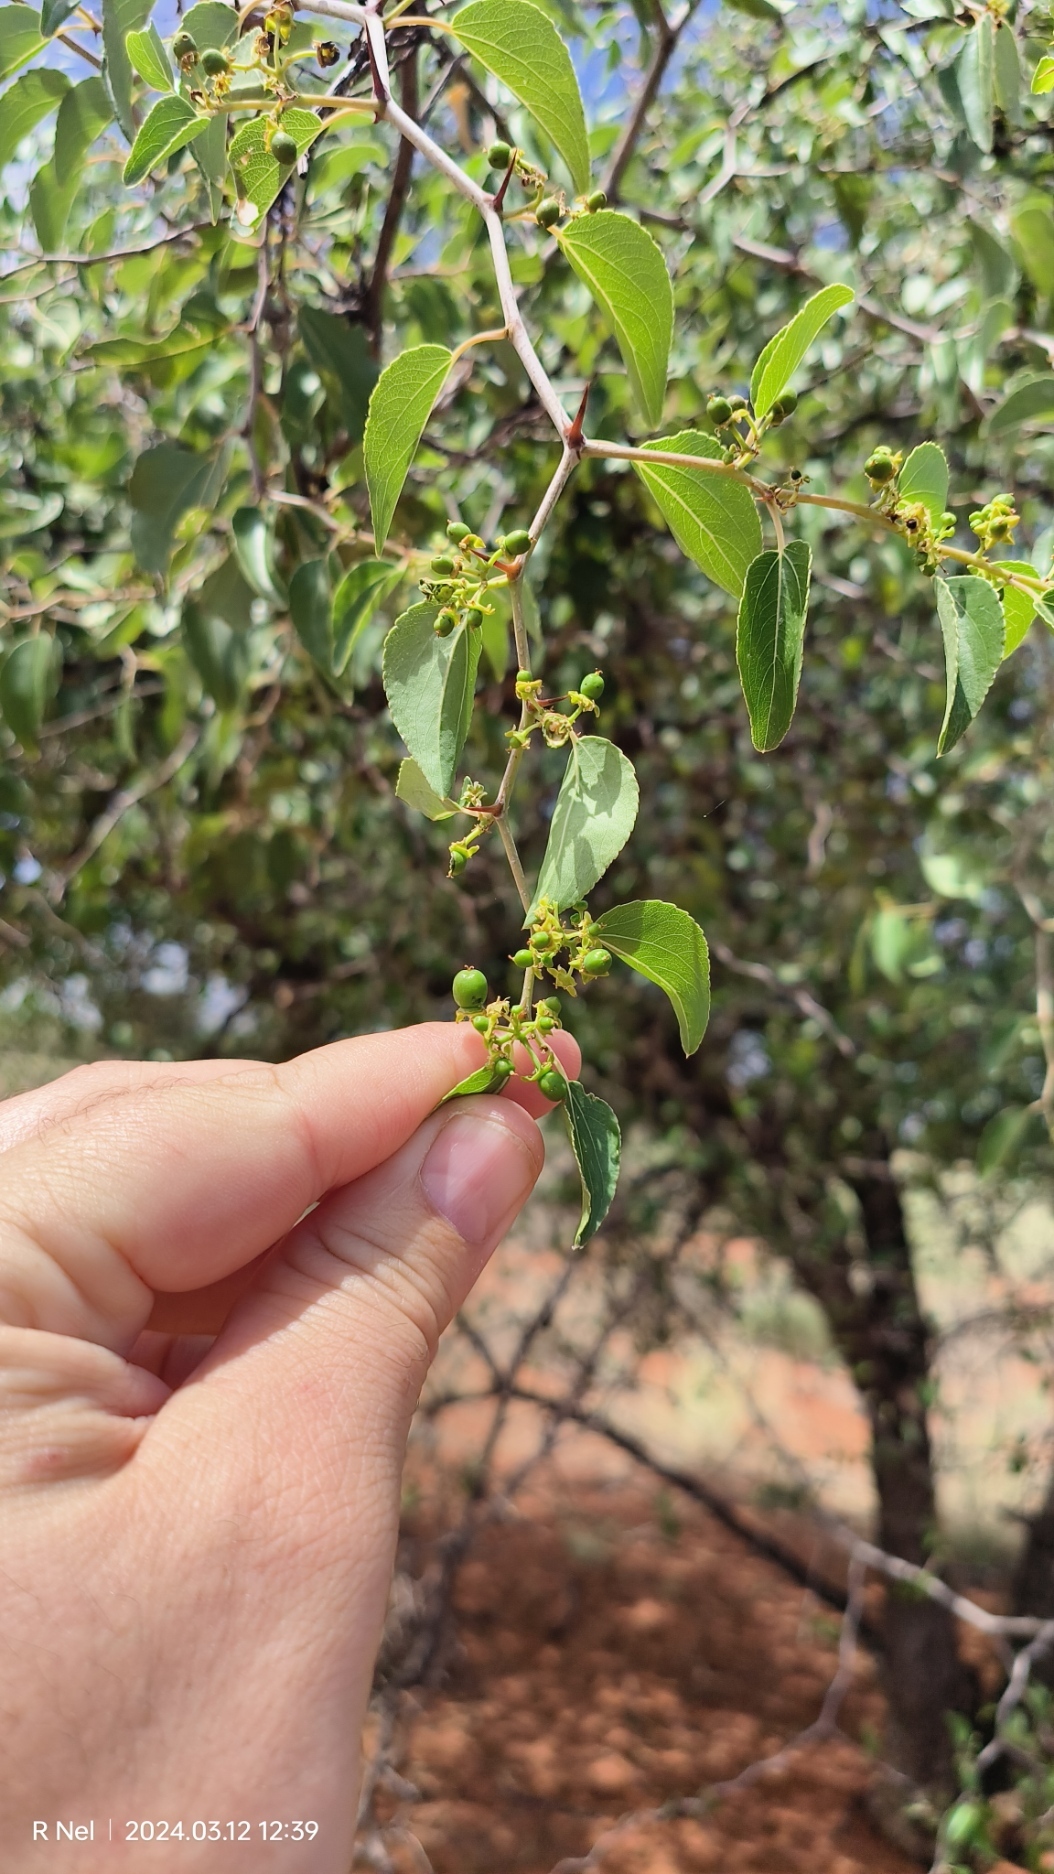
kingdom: Plantae
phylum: Tracheophyta
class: Magnoliopsida
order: Rosales
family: Rhamnaceae
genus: Ziziphus
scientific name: Ziziphus mucronata
